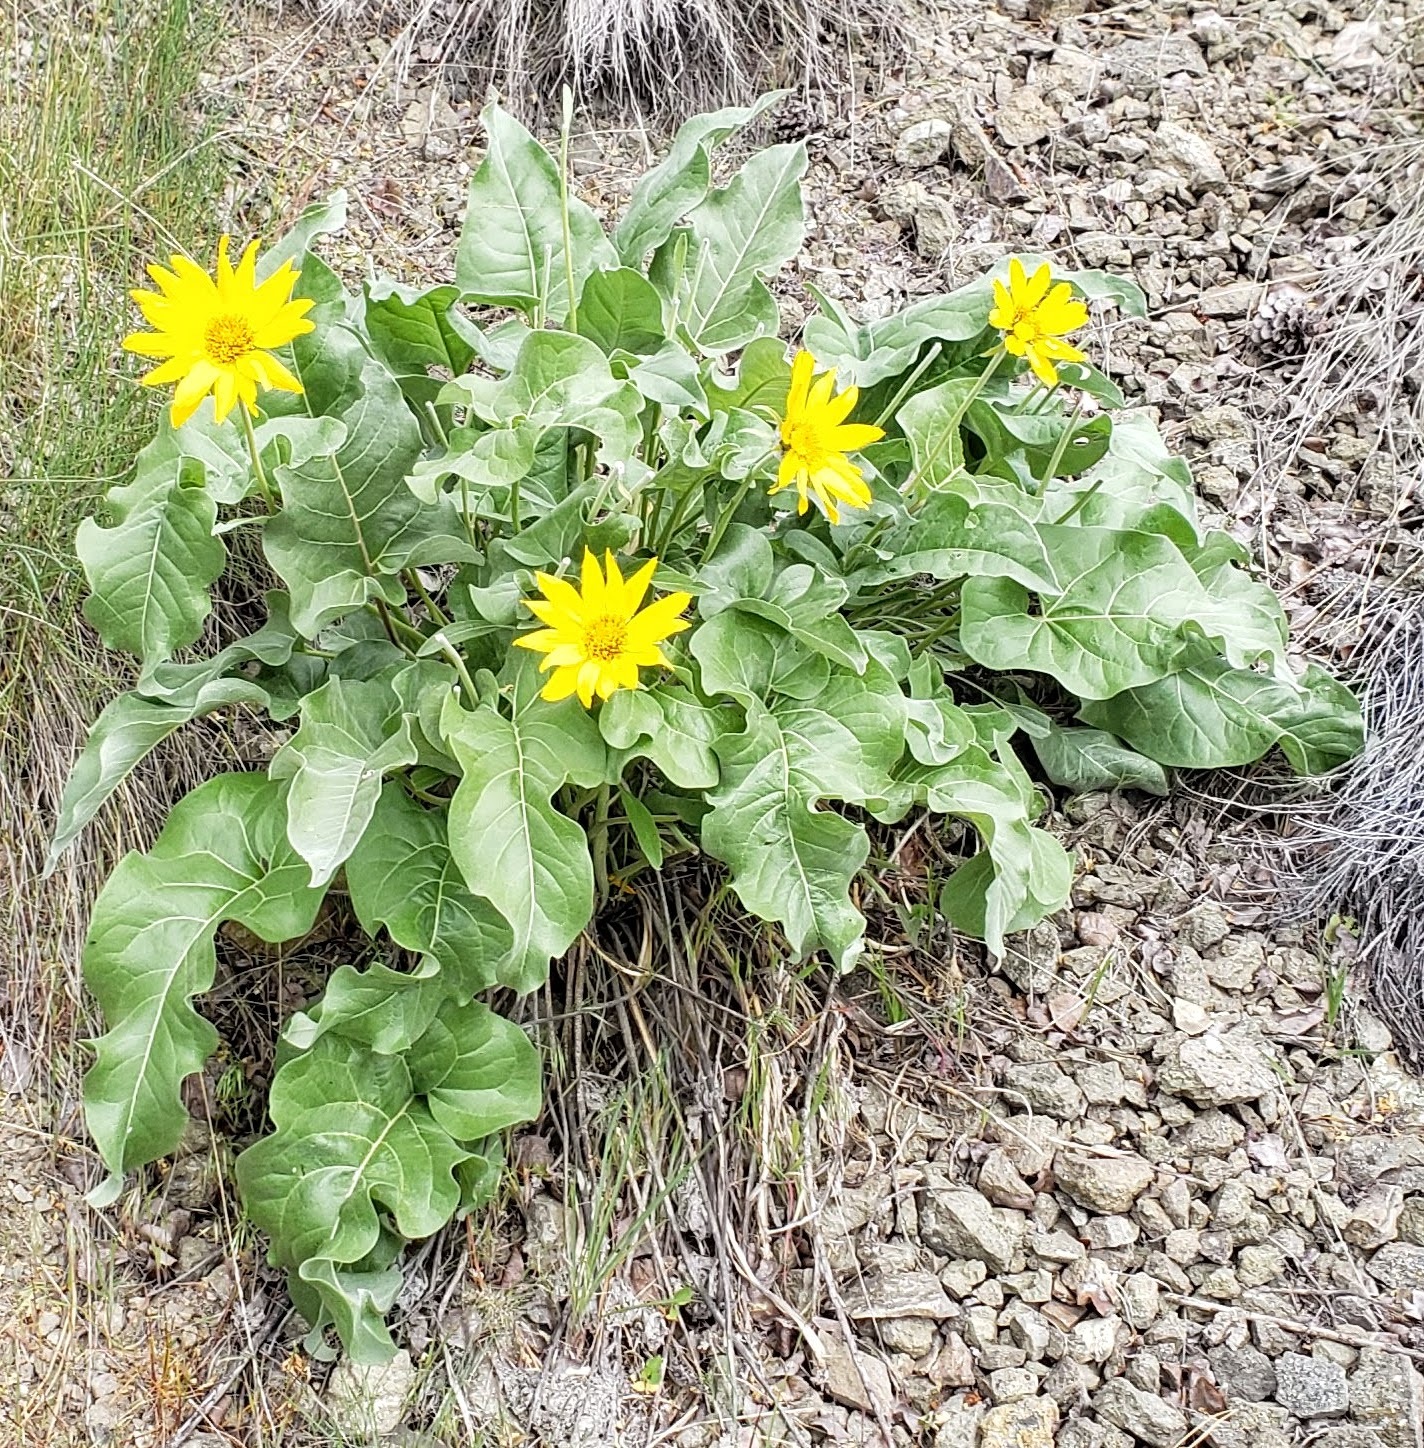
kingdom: Plantae
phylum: Tracheophyta
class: Magnoliopsida
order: Asterales
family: Asteraceae
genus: Wyethia
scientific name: Wyethia sagittata
